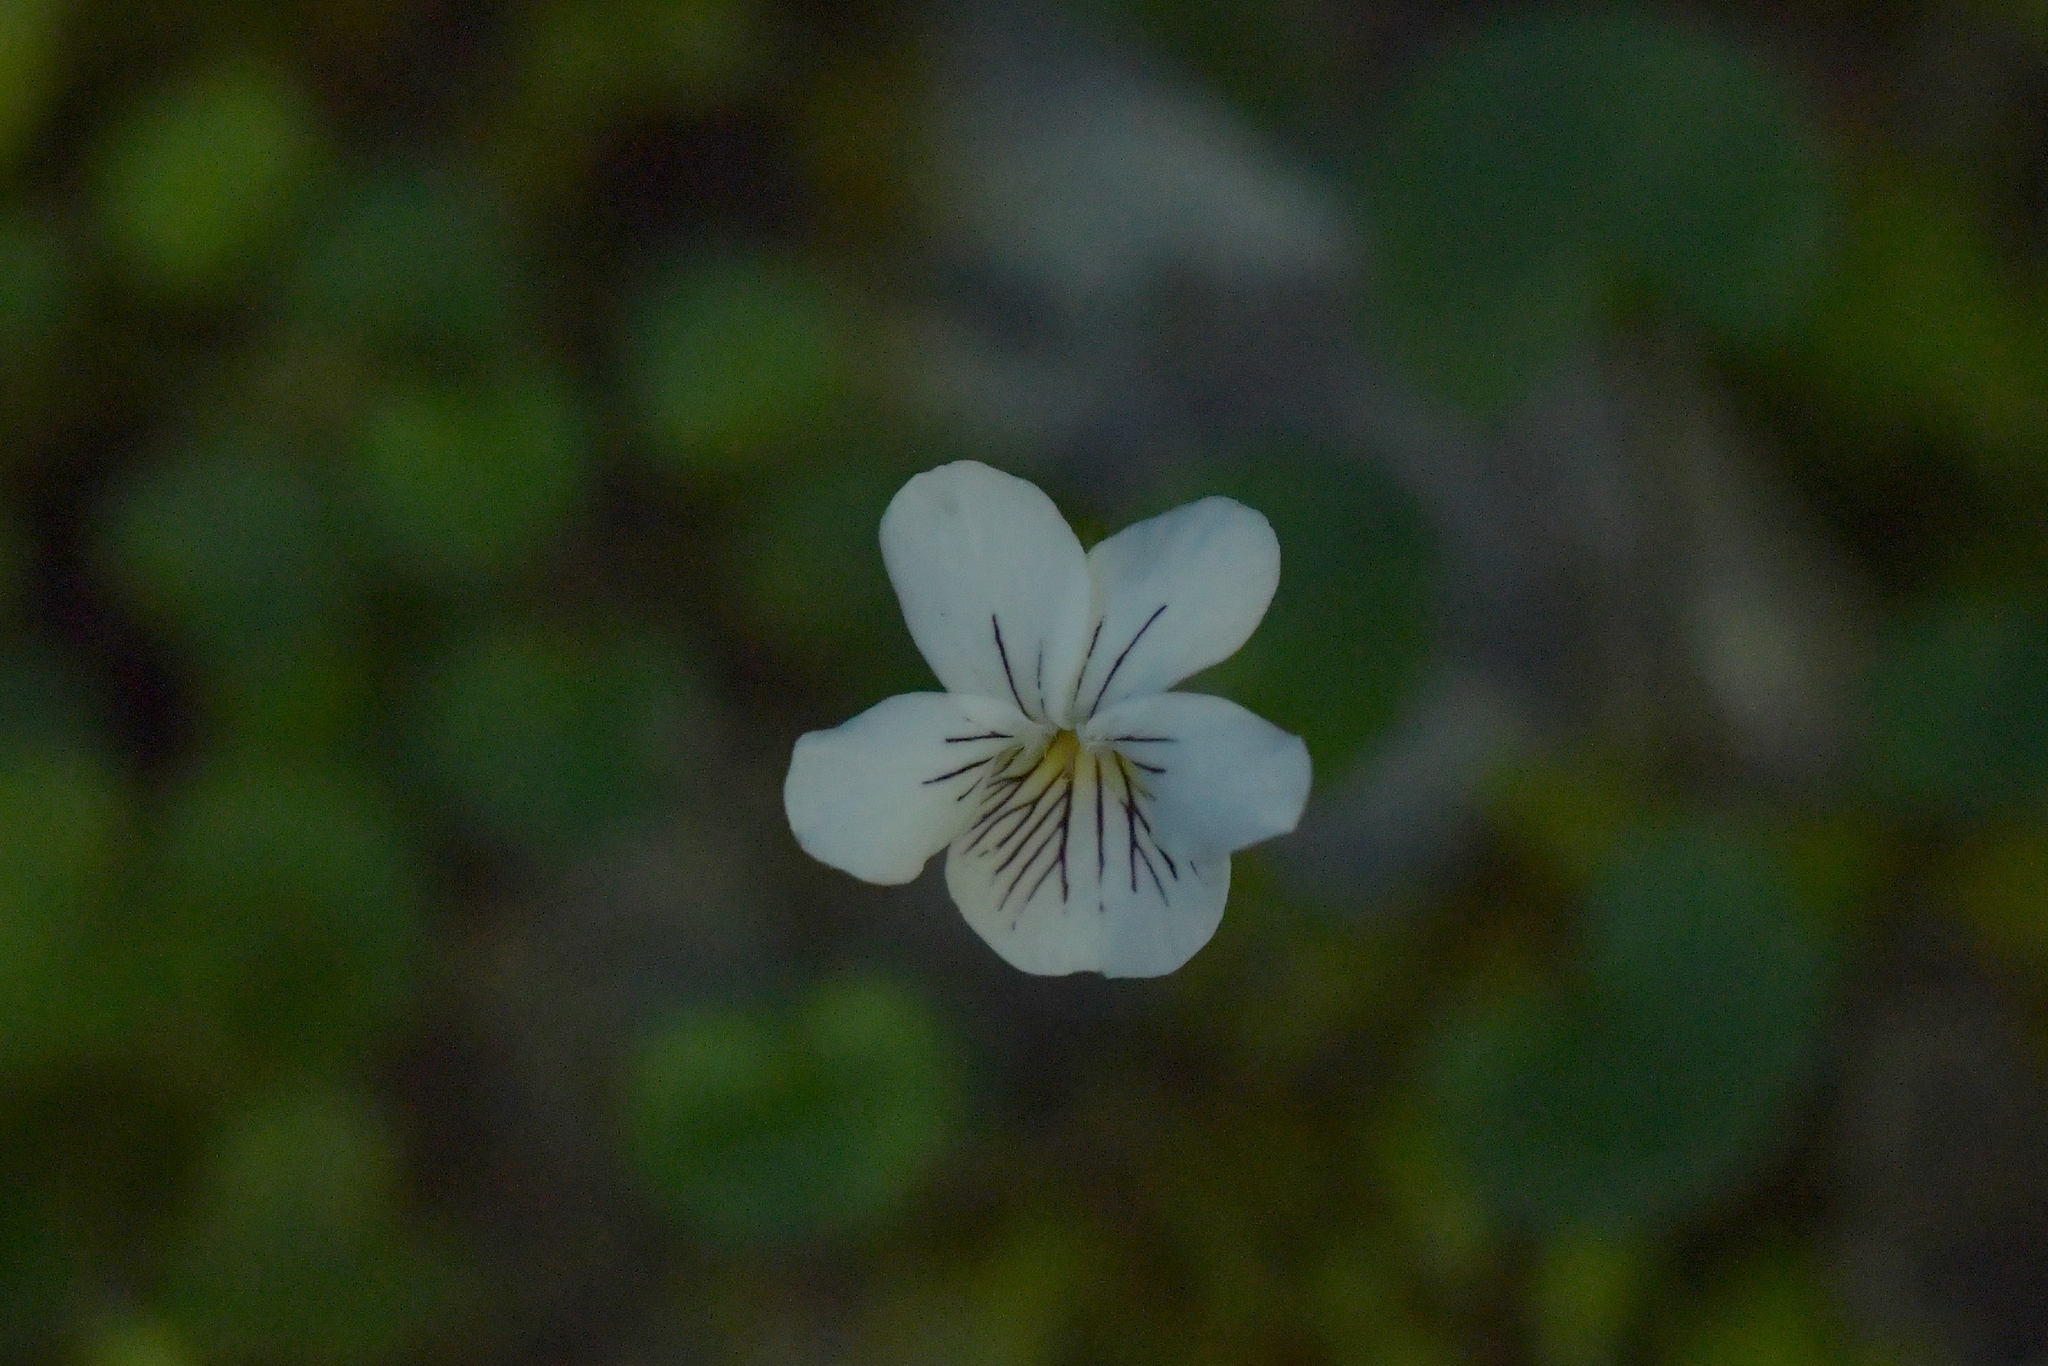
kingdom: Plantae
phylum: Tracheophyta
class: Magnoliopsida
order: Malpighiales
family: Violaceae
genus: Viola
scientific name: Viola filicaulis
